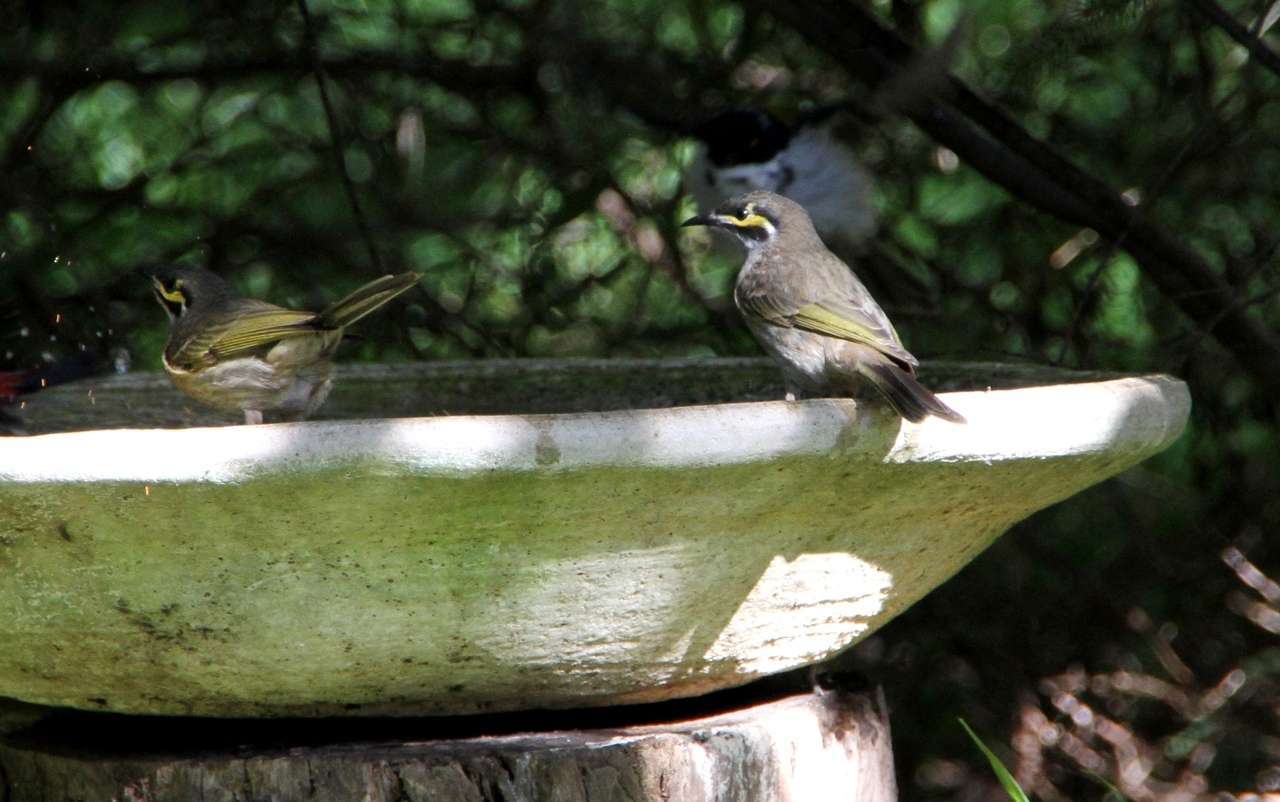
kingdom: Animalia
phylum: Chordata
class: Aves
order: Passeriformes
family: Meliphagidae
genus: Caligavis
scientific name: Caligavis chrysops
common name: Yellow-faced honeyeater
